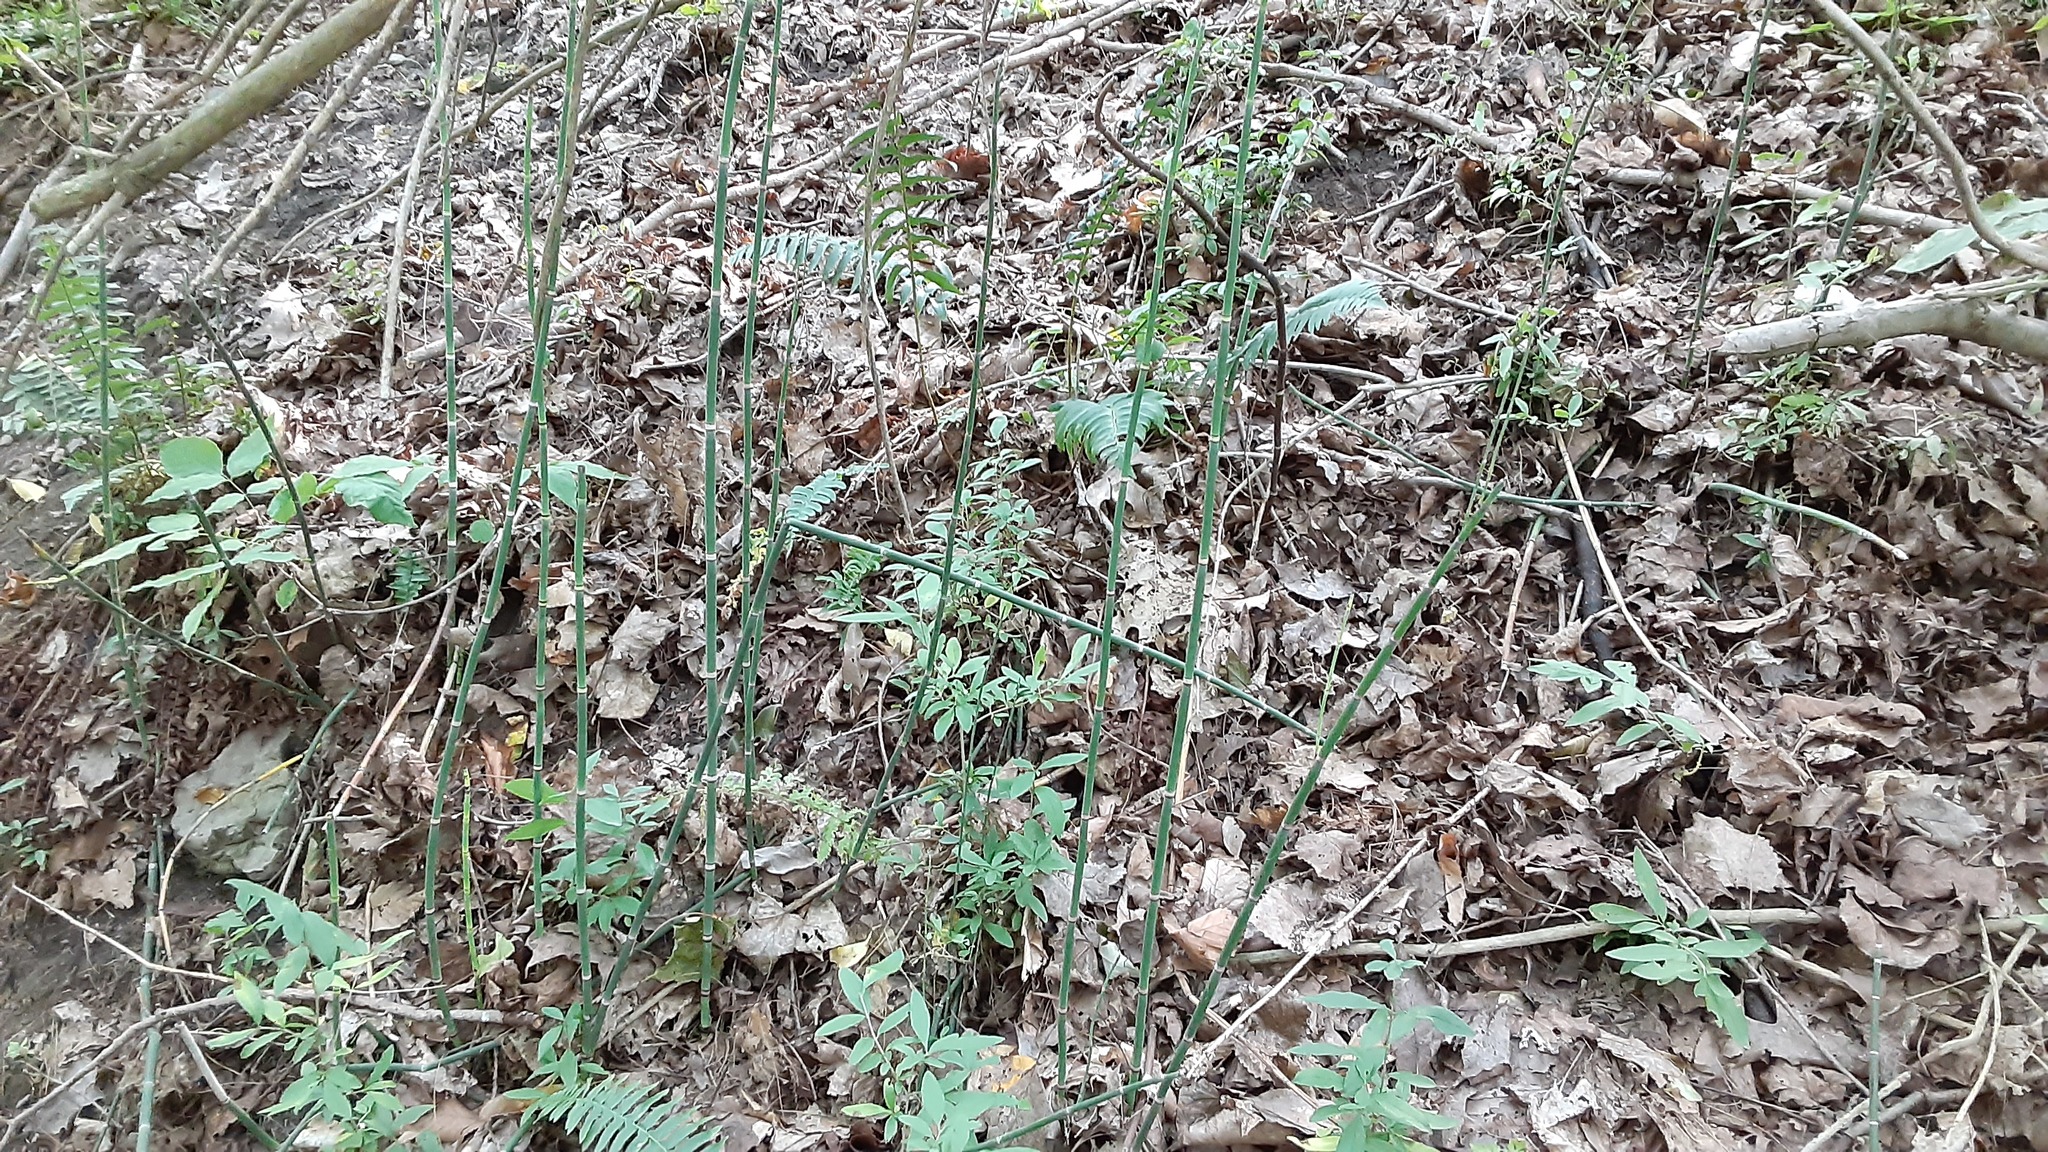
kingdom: Plantae
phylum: Tracheophyta
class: Polypodiopsida
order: Equisetales
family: Equisetaceae
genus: Equisetum
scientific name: Equisetum praealtum
